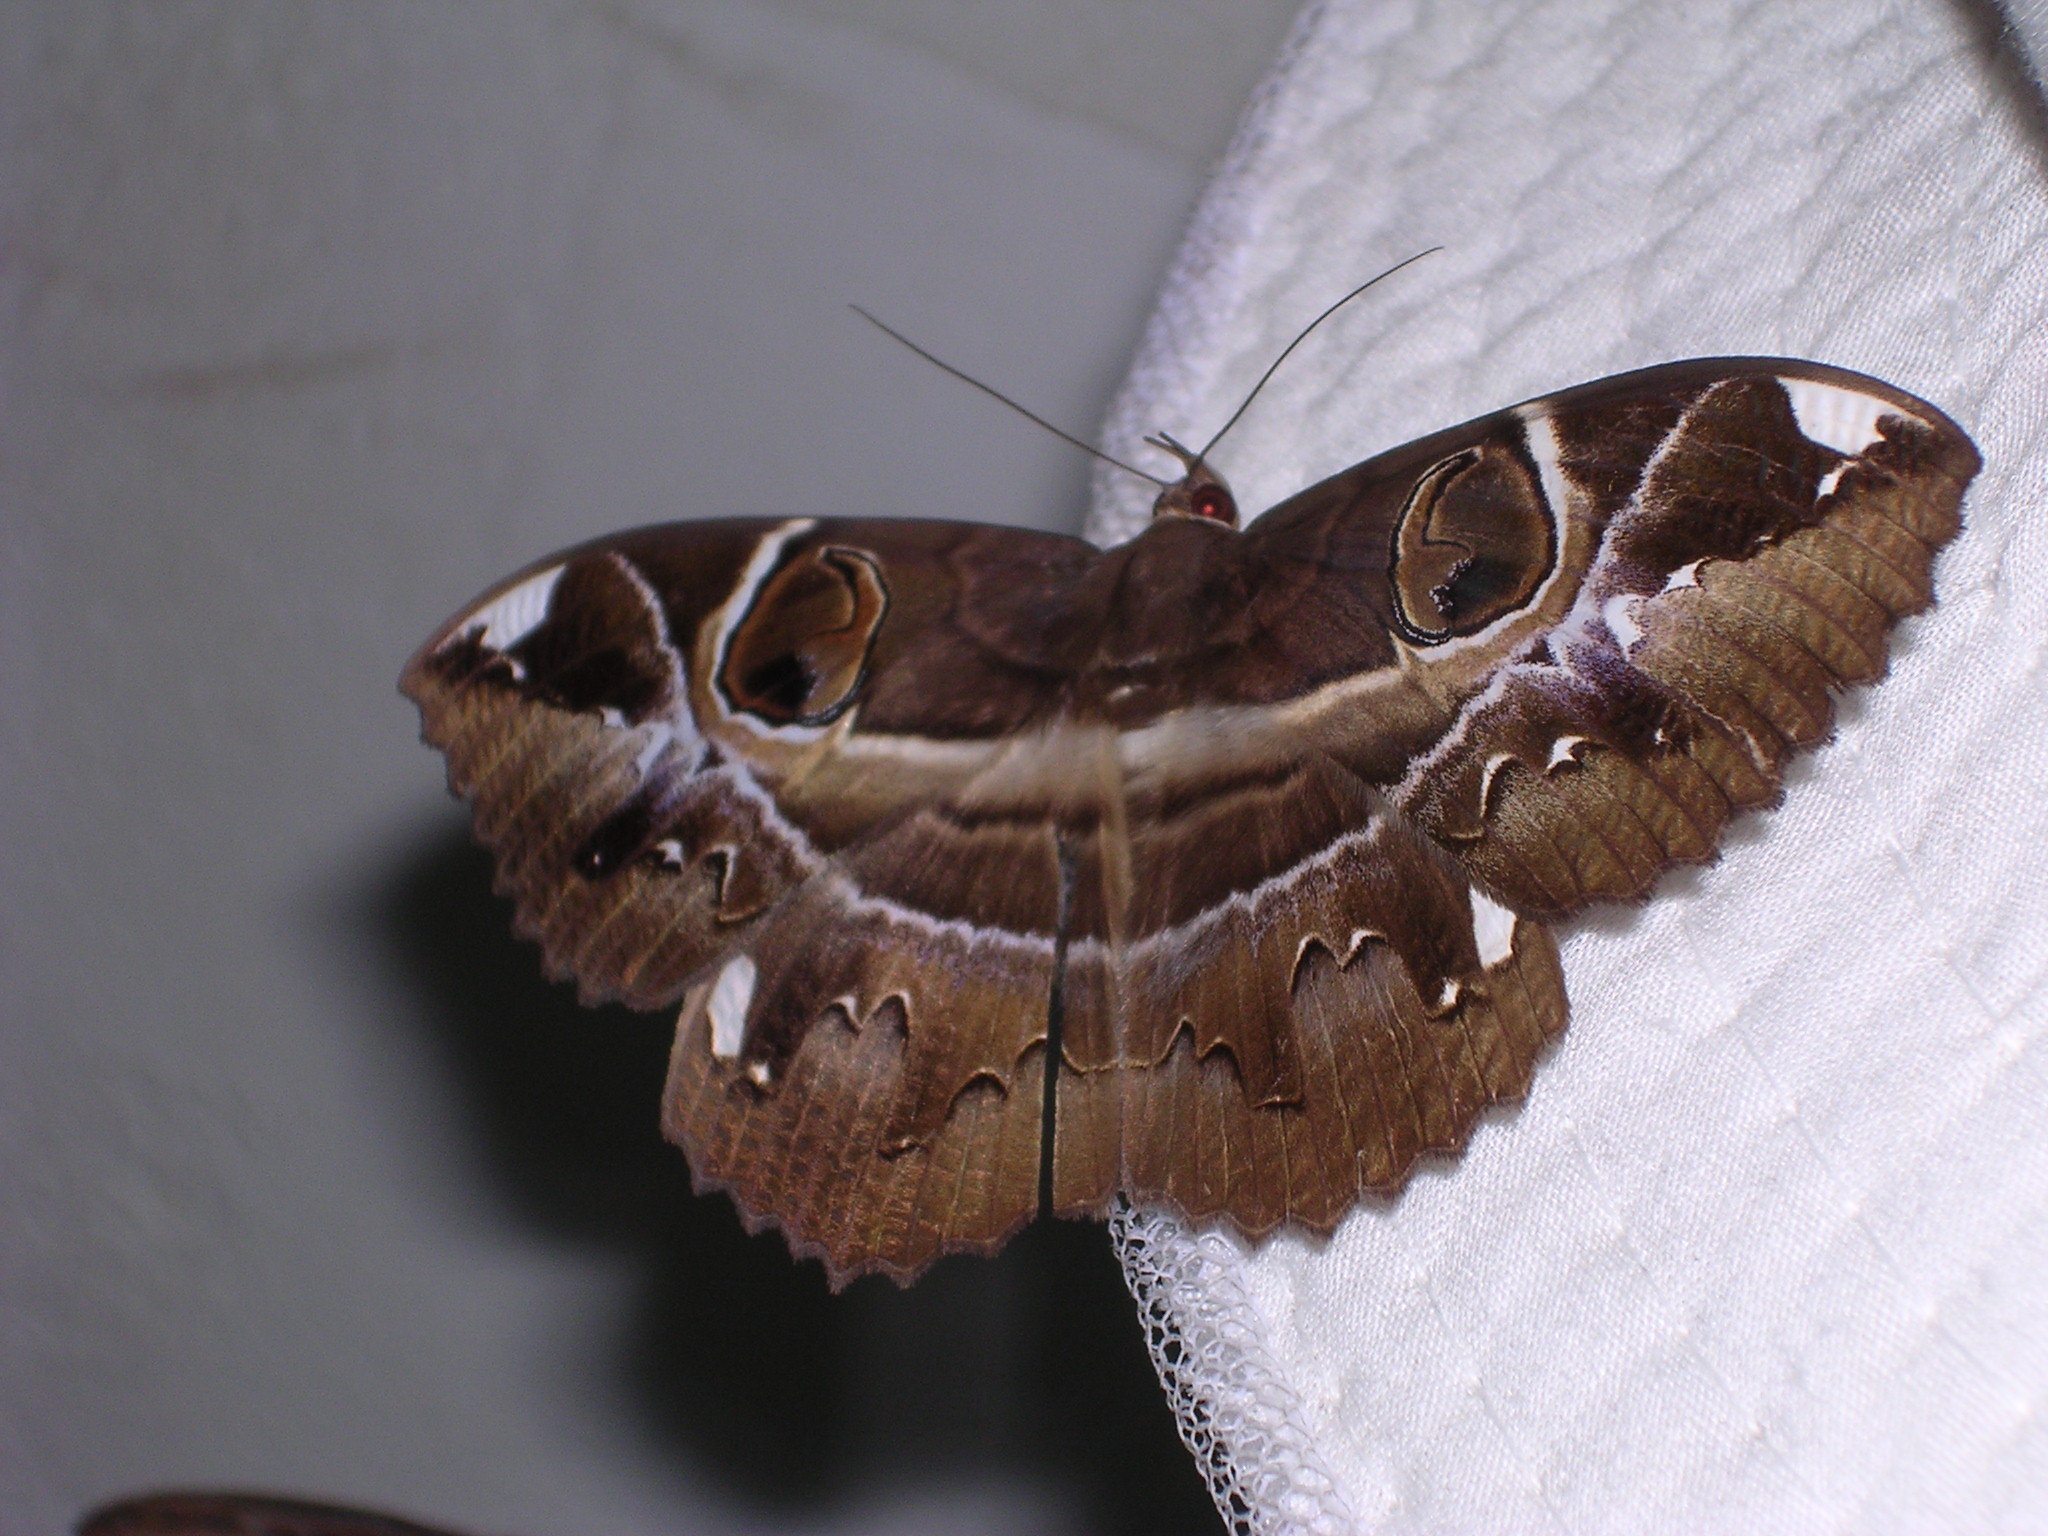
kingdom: Animalia
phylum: Arthropoda
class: Insecta
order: Lepidoptera
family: Erebidae
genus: Erebus
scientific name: Erebus ephesperis
